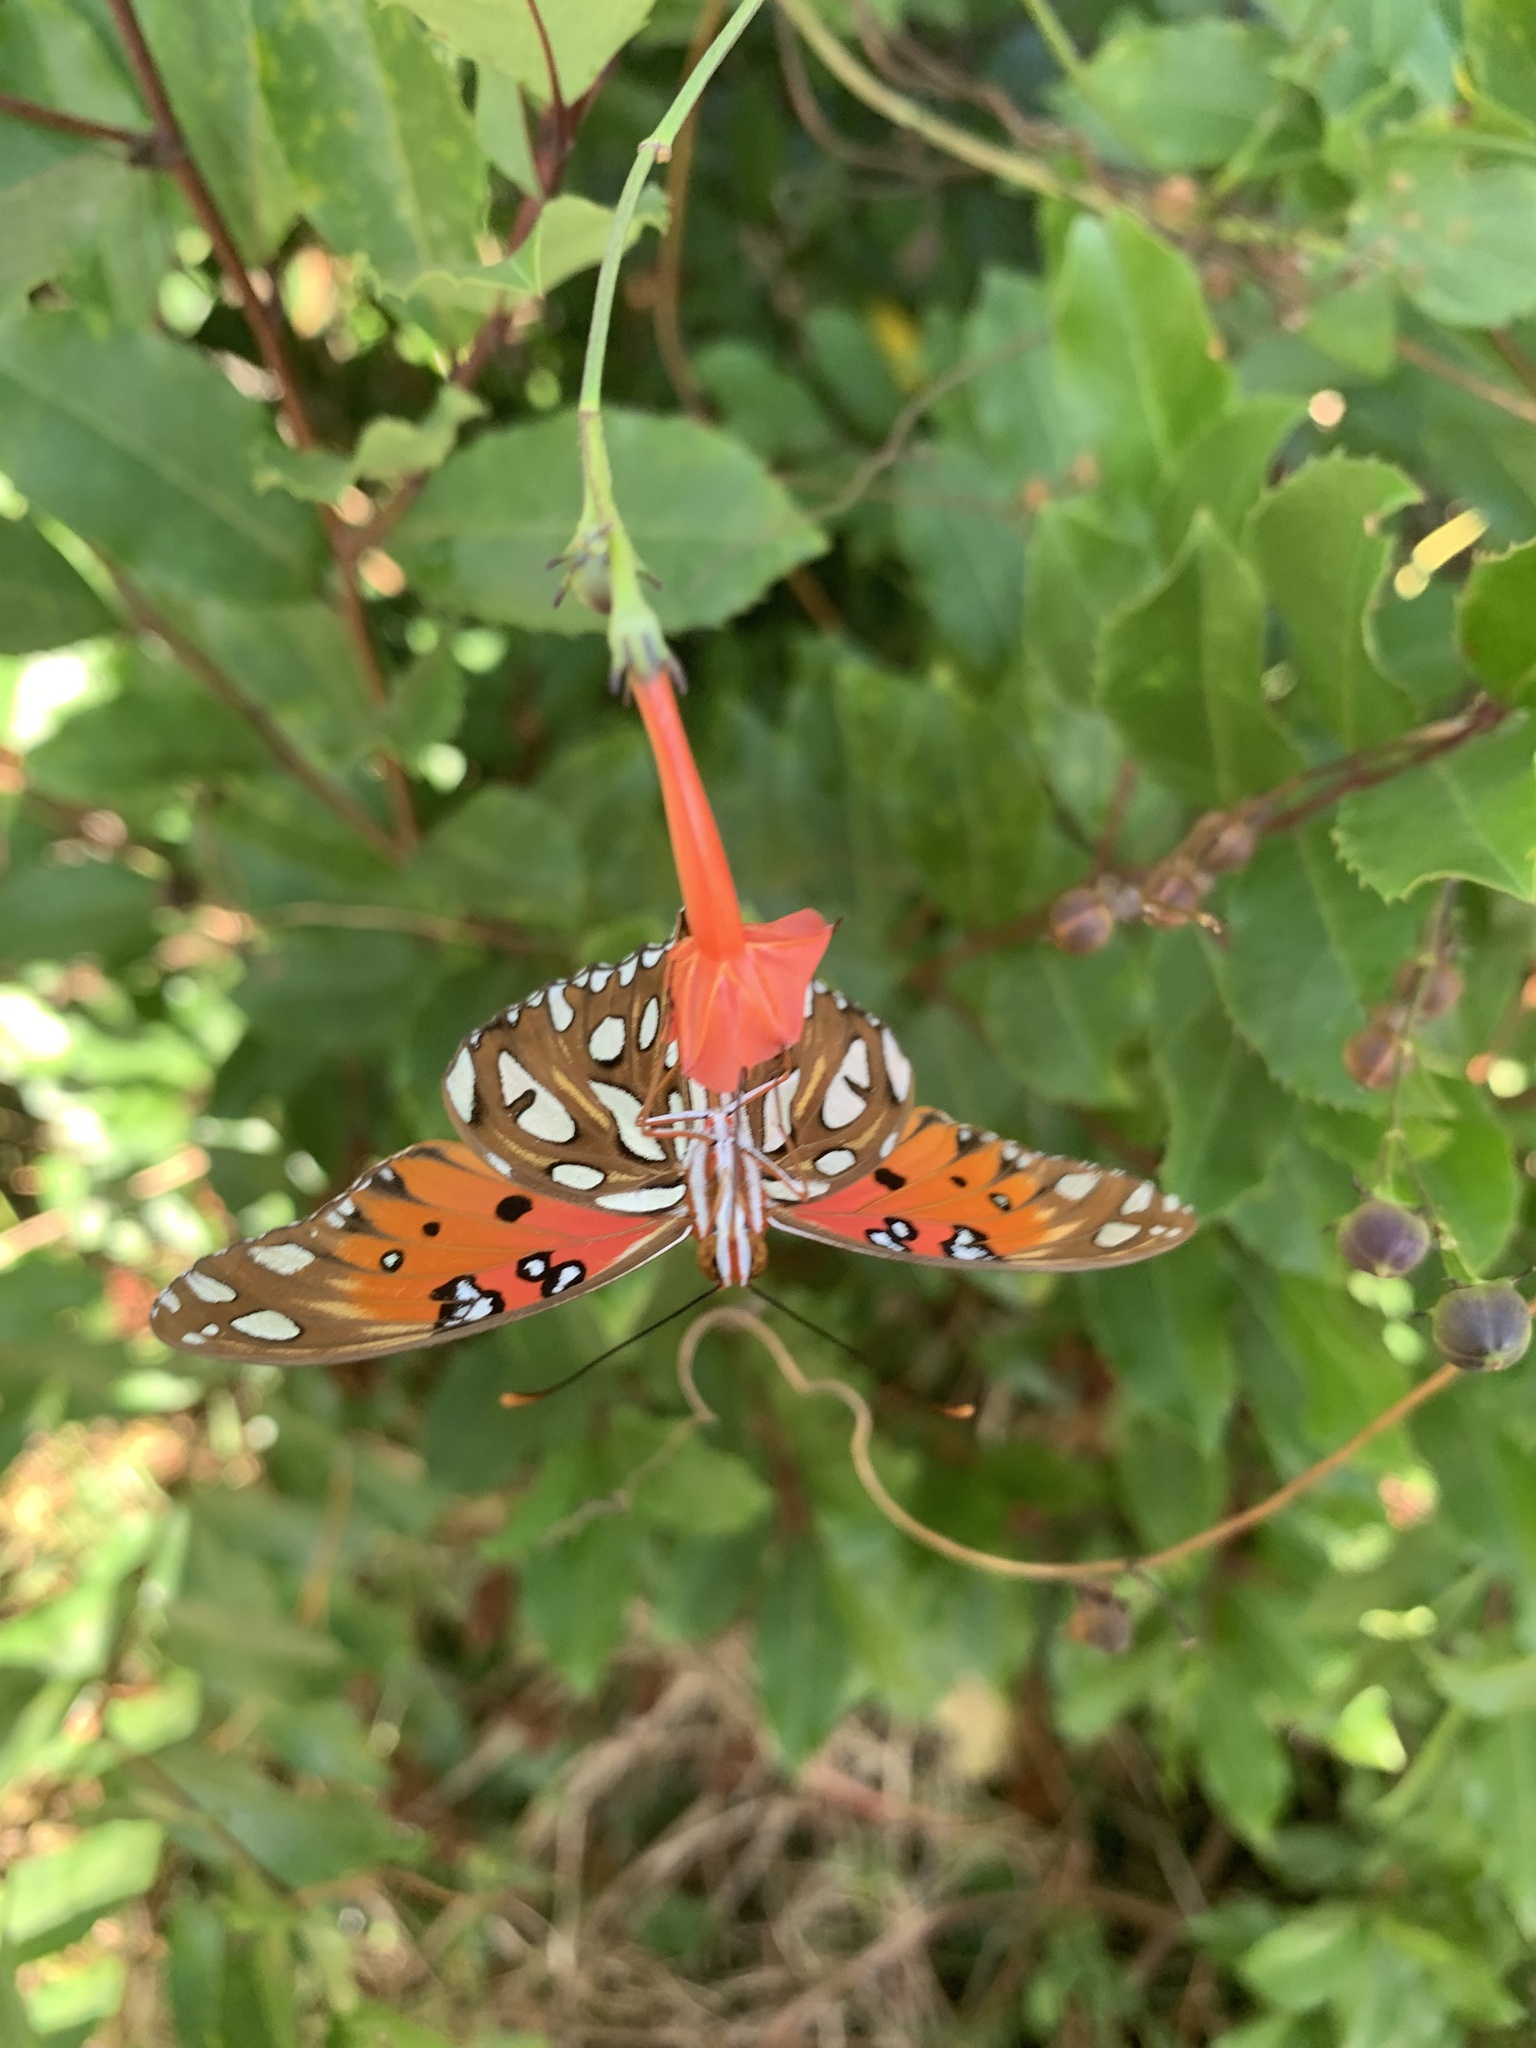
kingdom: Animalia
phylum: Arthropoda
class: Insecta
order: Lepidoptera
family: Nymphalidae
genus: Dione
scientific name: Dione vanillae
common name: Gulf fritillary
